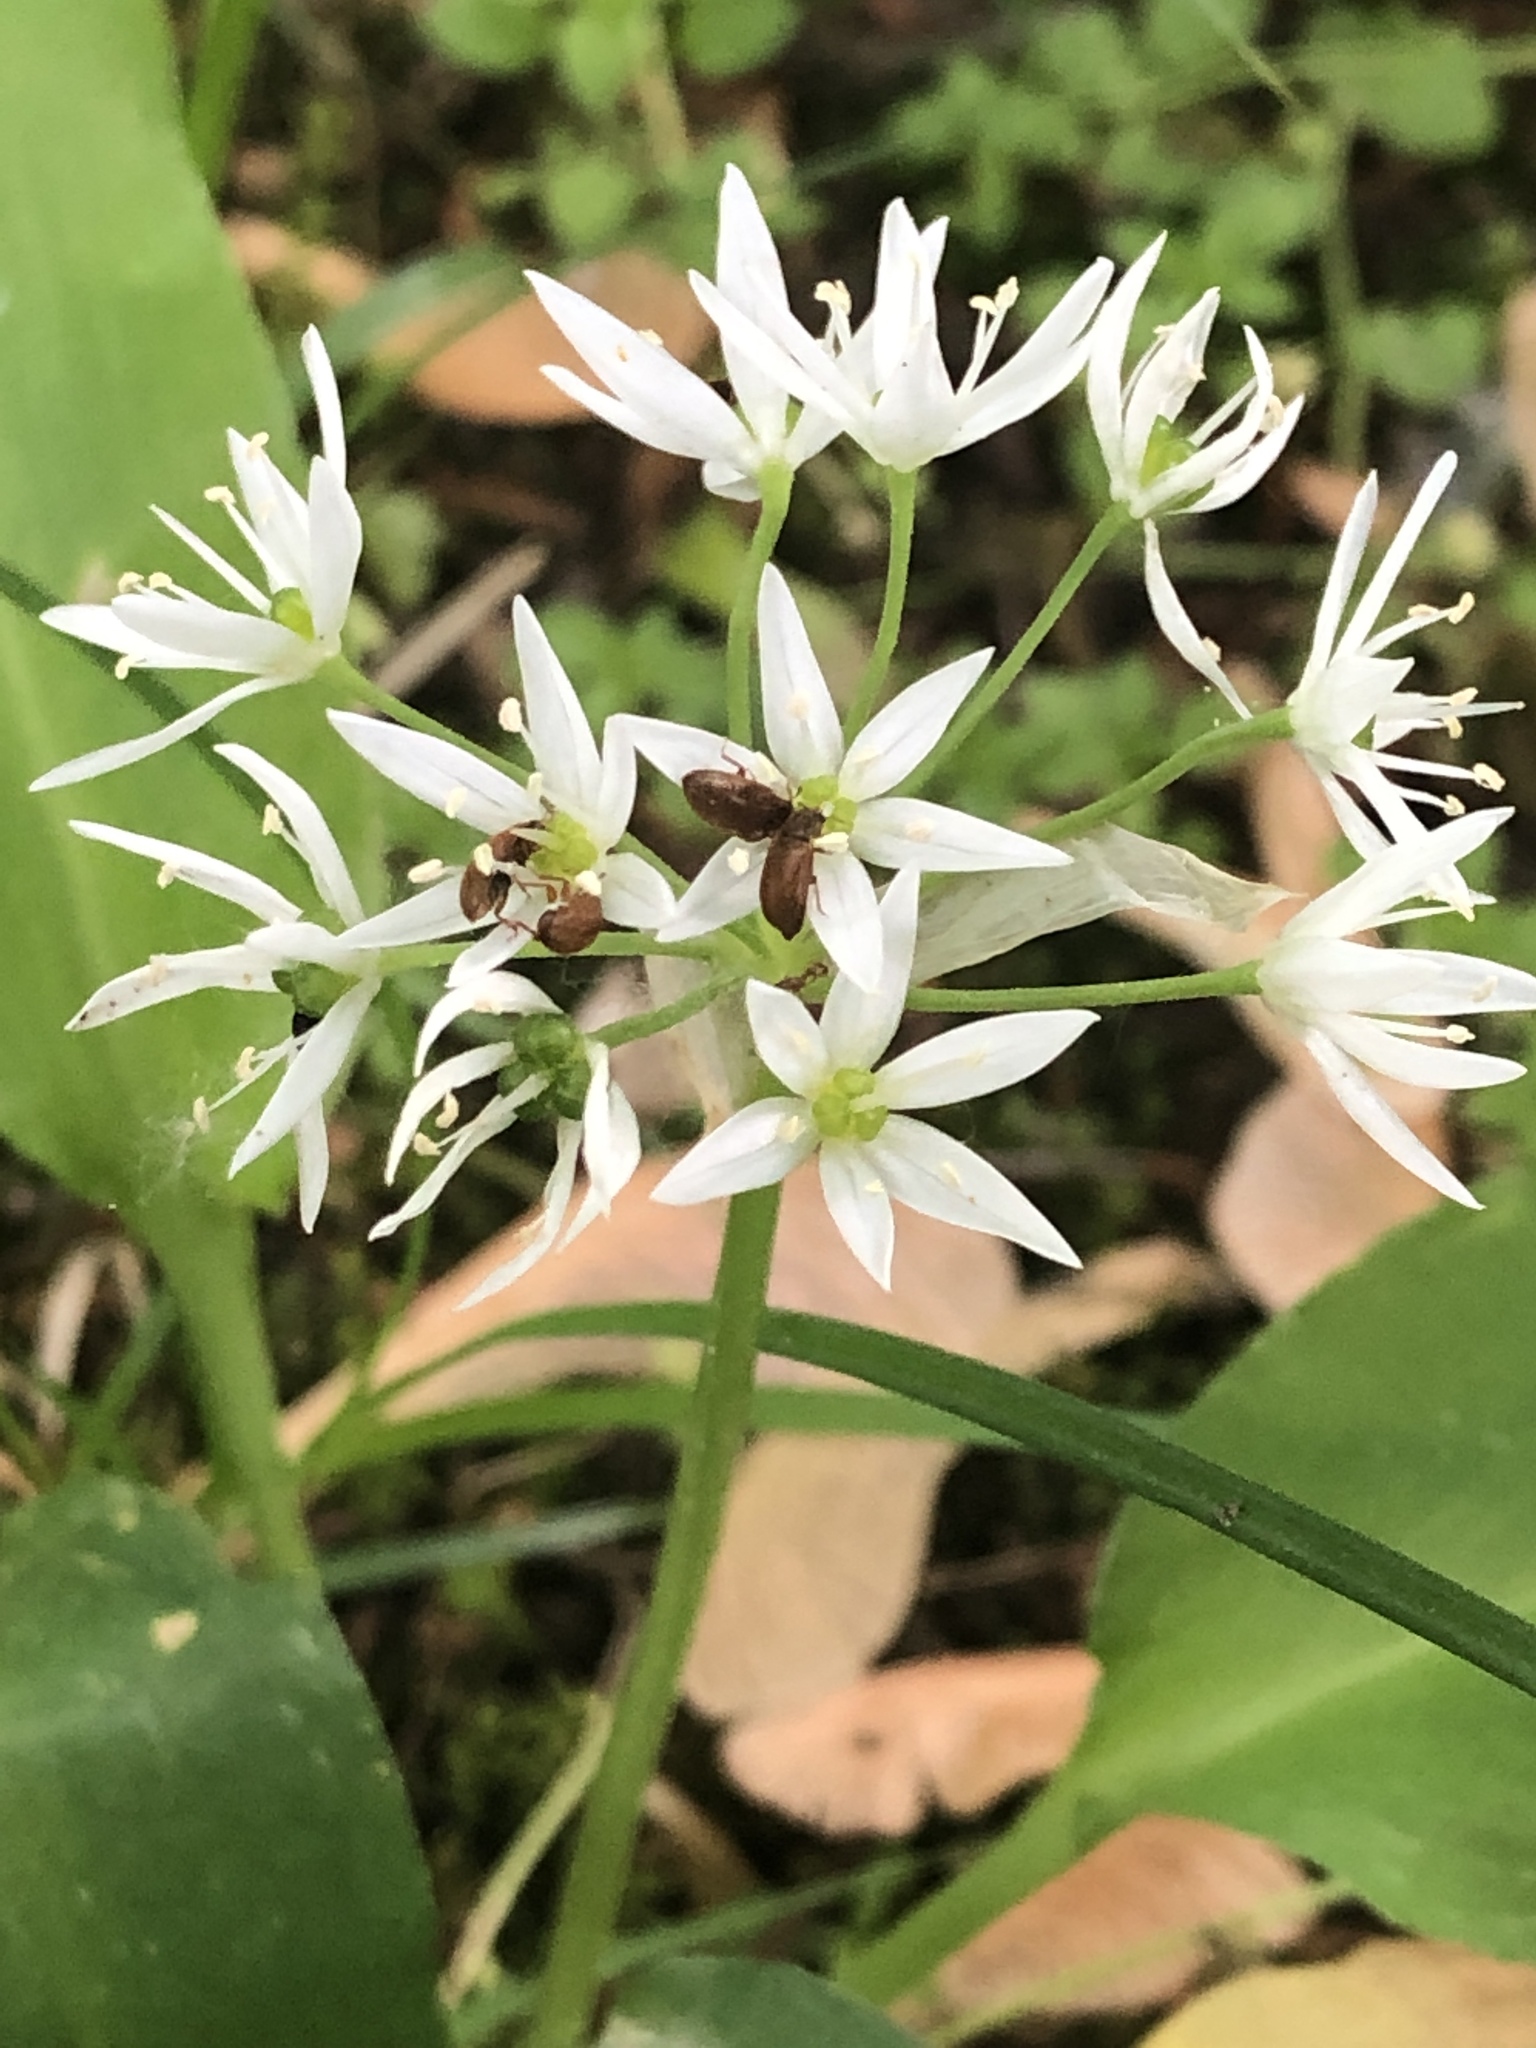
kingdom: Plantae
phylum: Tracheophyta
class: Liliopsida
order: Asparagales
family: Amaryllidaceae
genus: Allium
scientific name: Allium ursinum
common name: Ramsons
